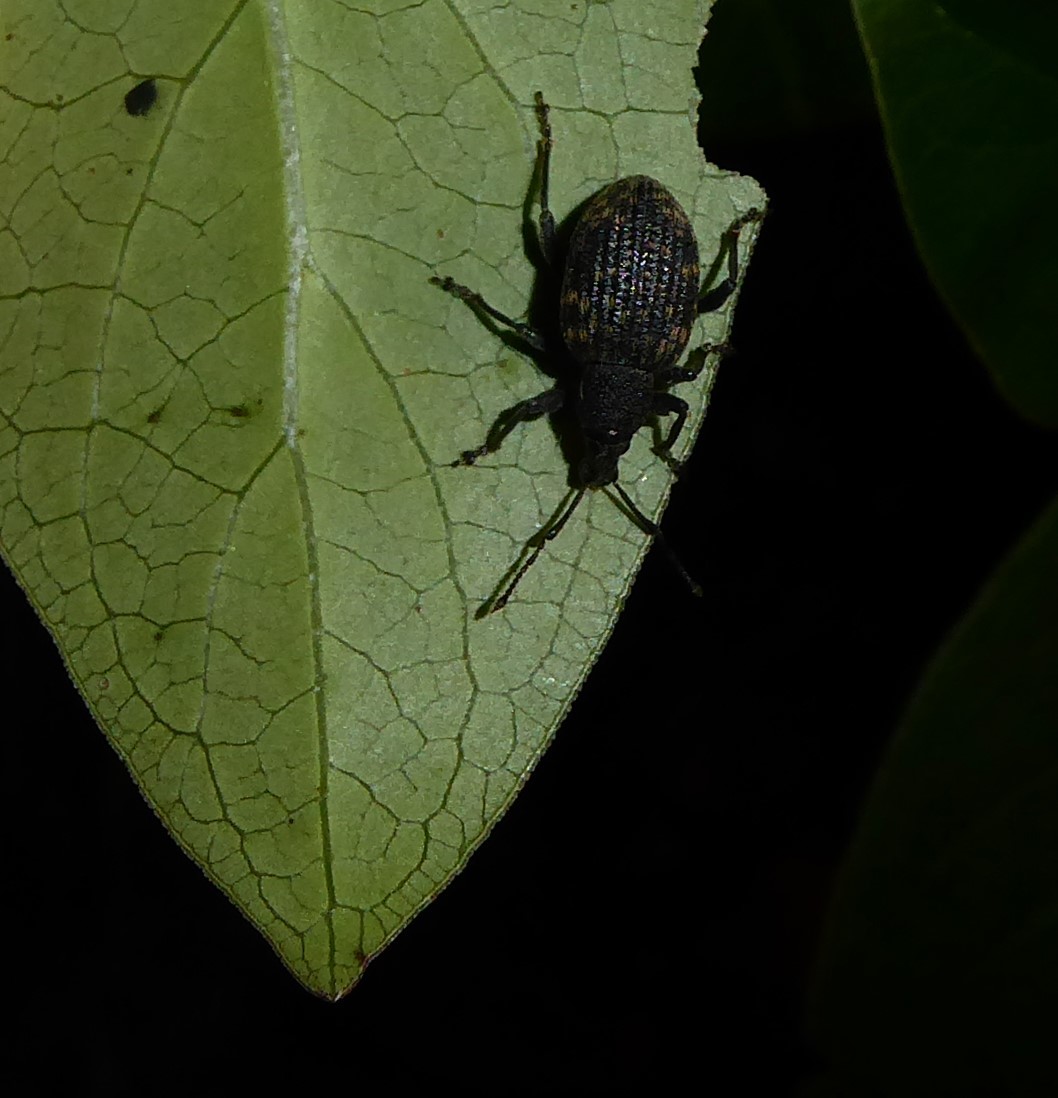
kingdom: Animalia
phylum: Arthropoda
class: Insecta
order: Coleoptera
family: Curculionidae
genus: Otiorhynchus
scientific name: Otiorhynchus sulcatus
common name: Black vine weevil
